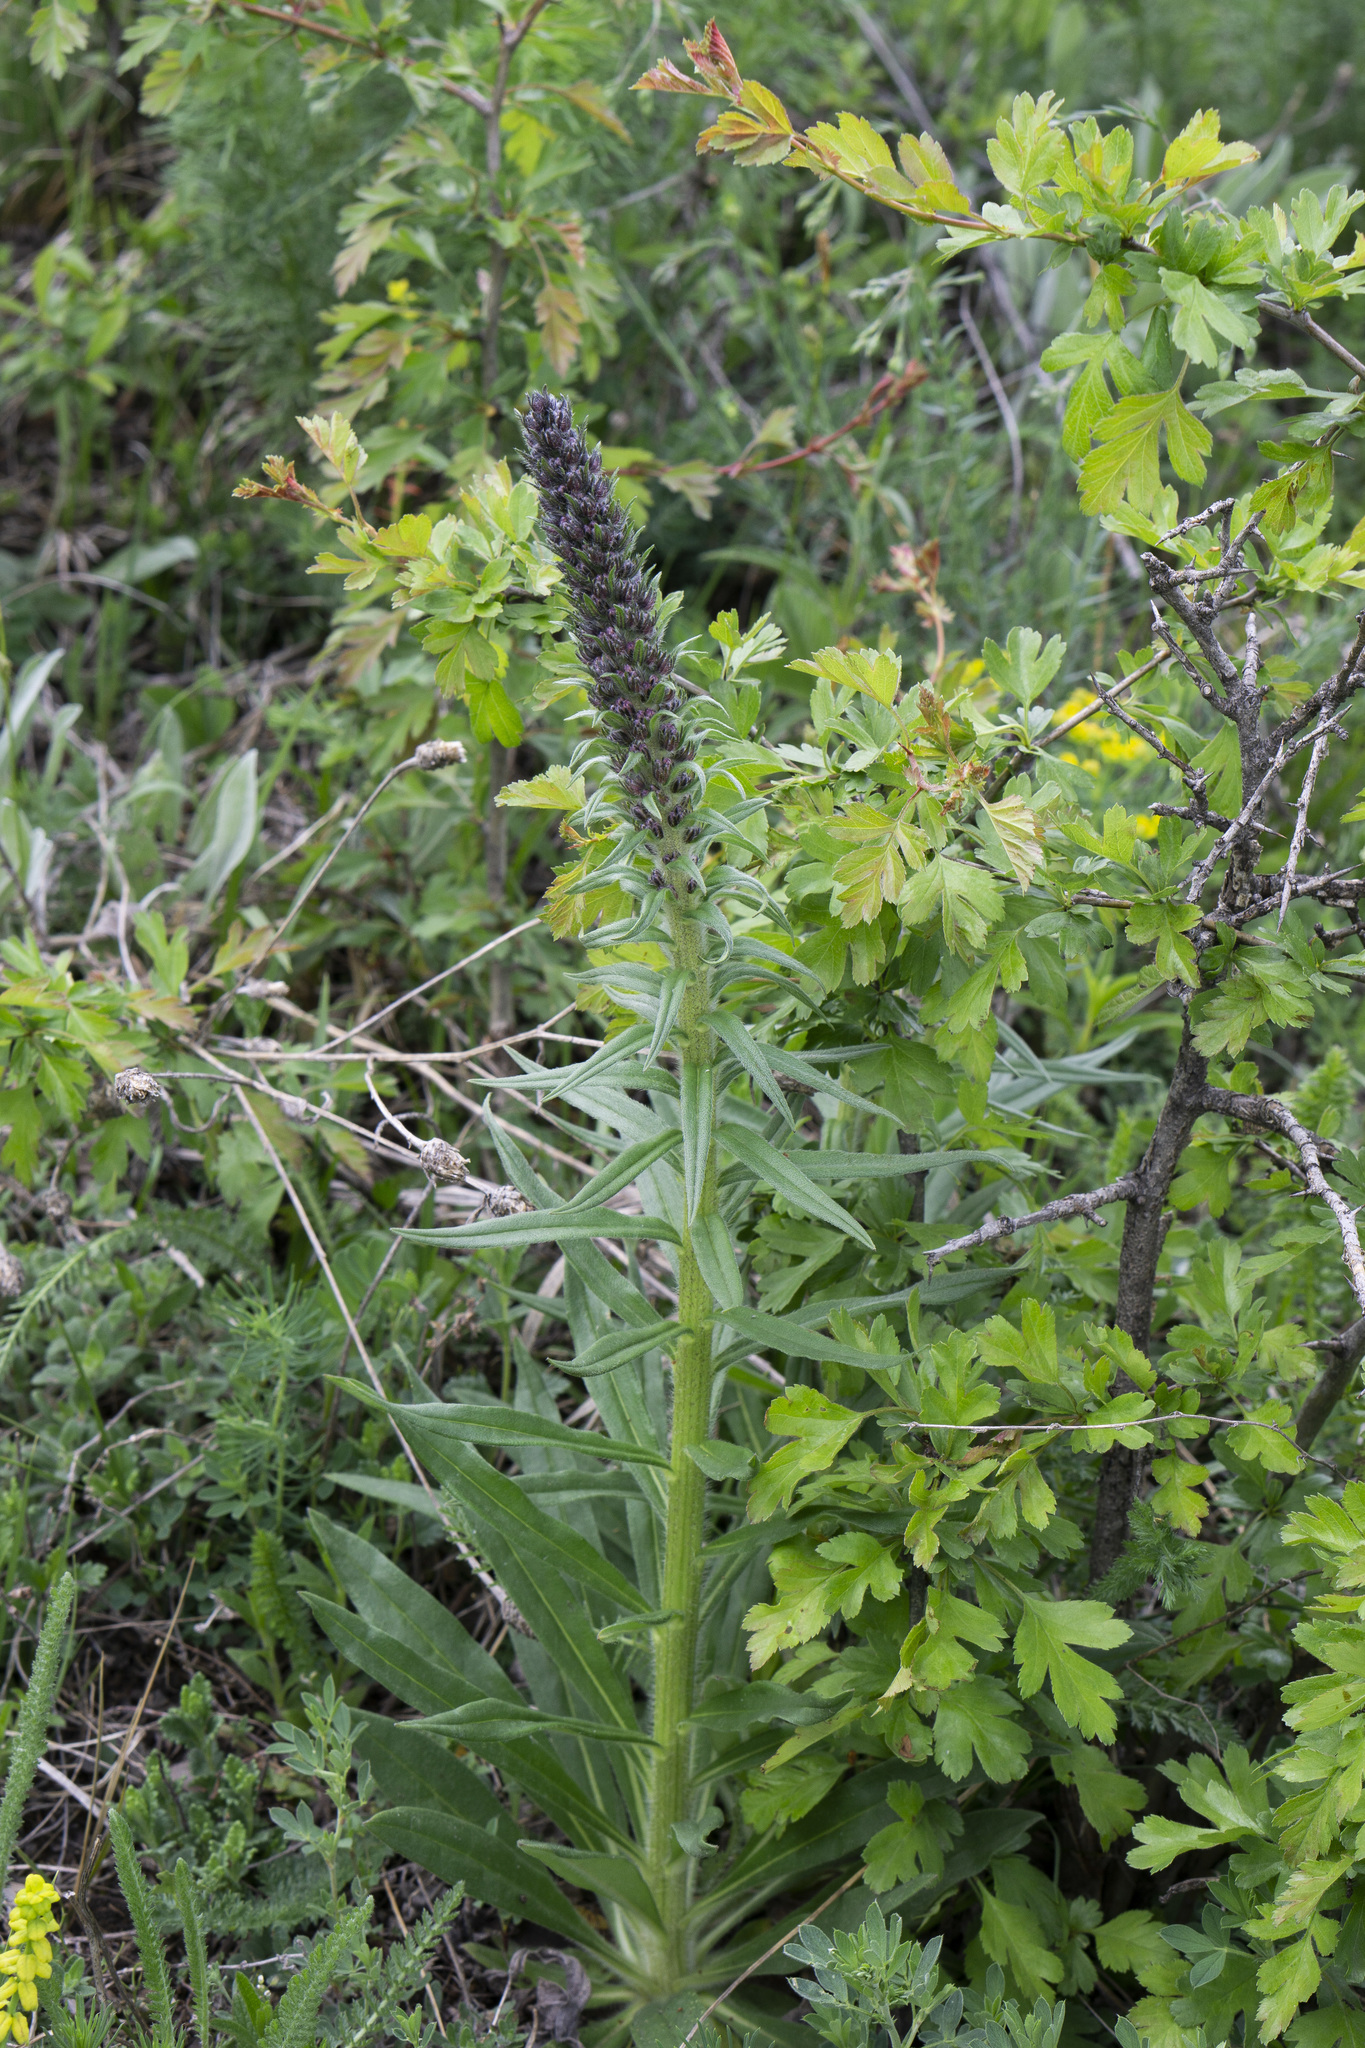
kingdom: Plantae
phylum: Tracheophyta
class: Magnoliopsida
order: Boraginales
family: Boraginaceae
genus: Pontechium
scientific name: Pontechium maculatum
